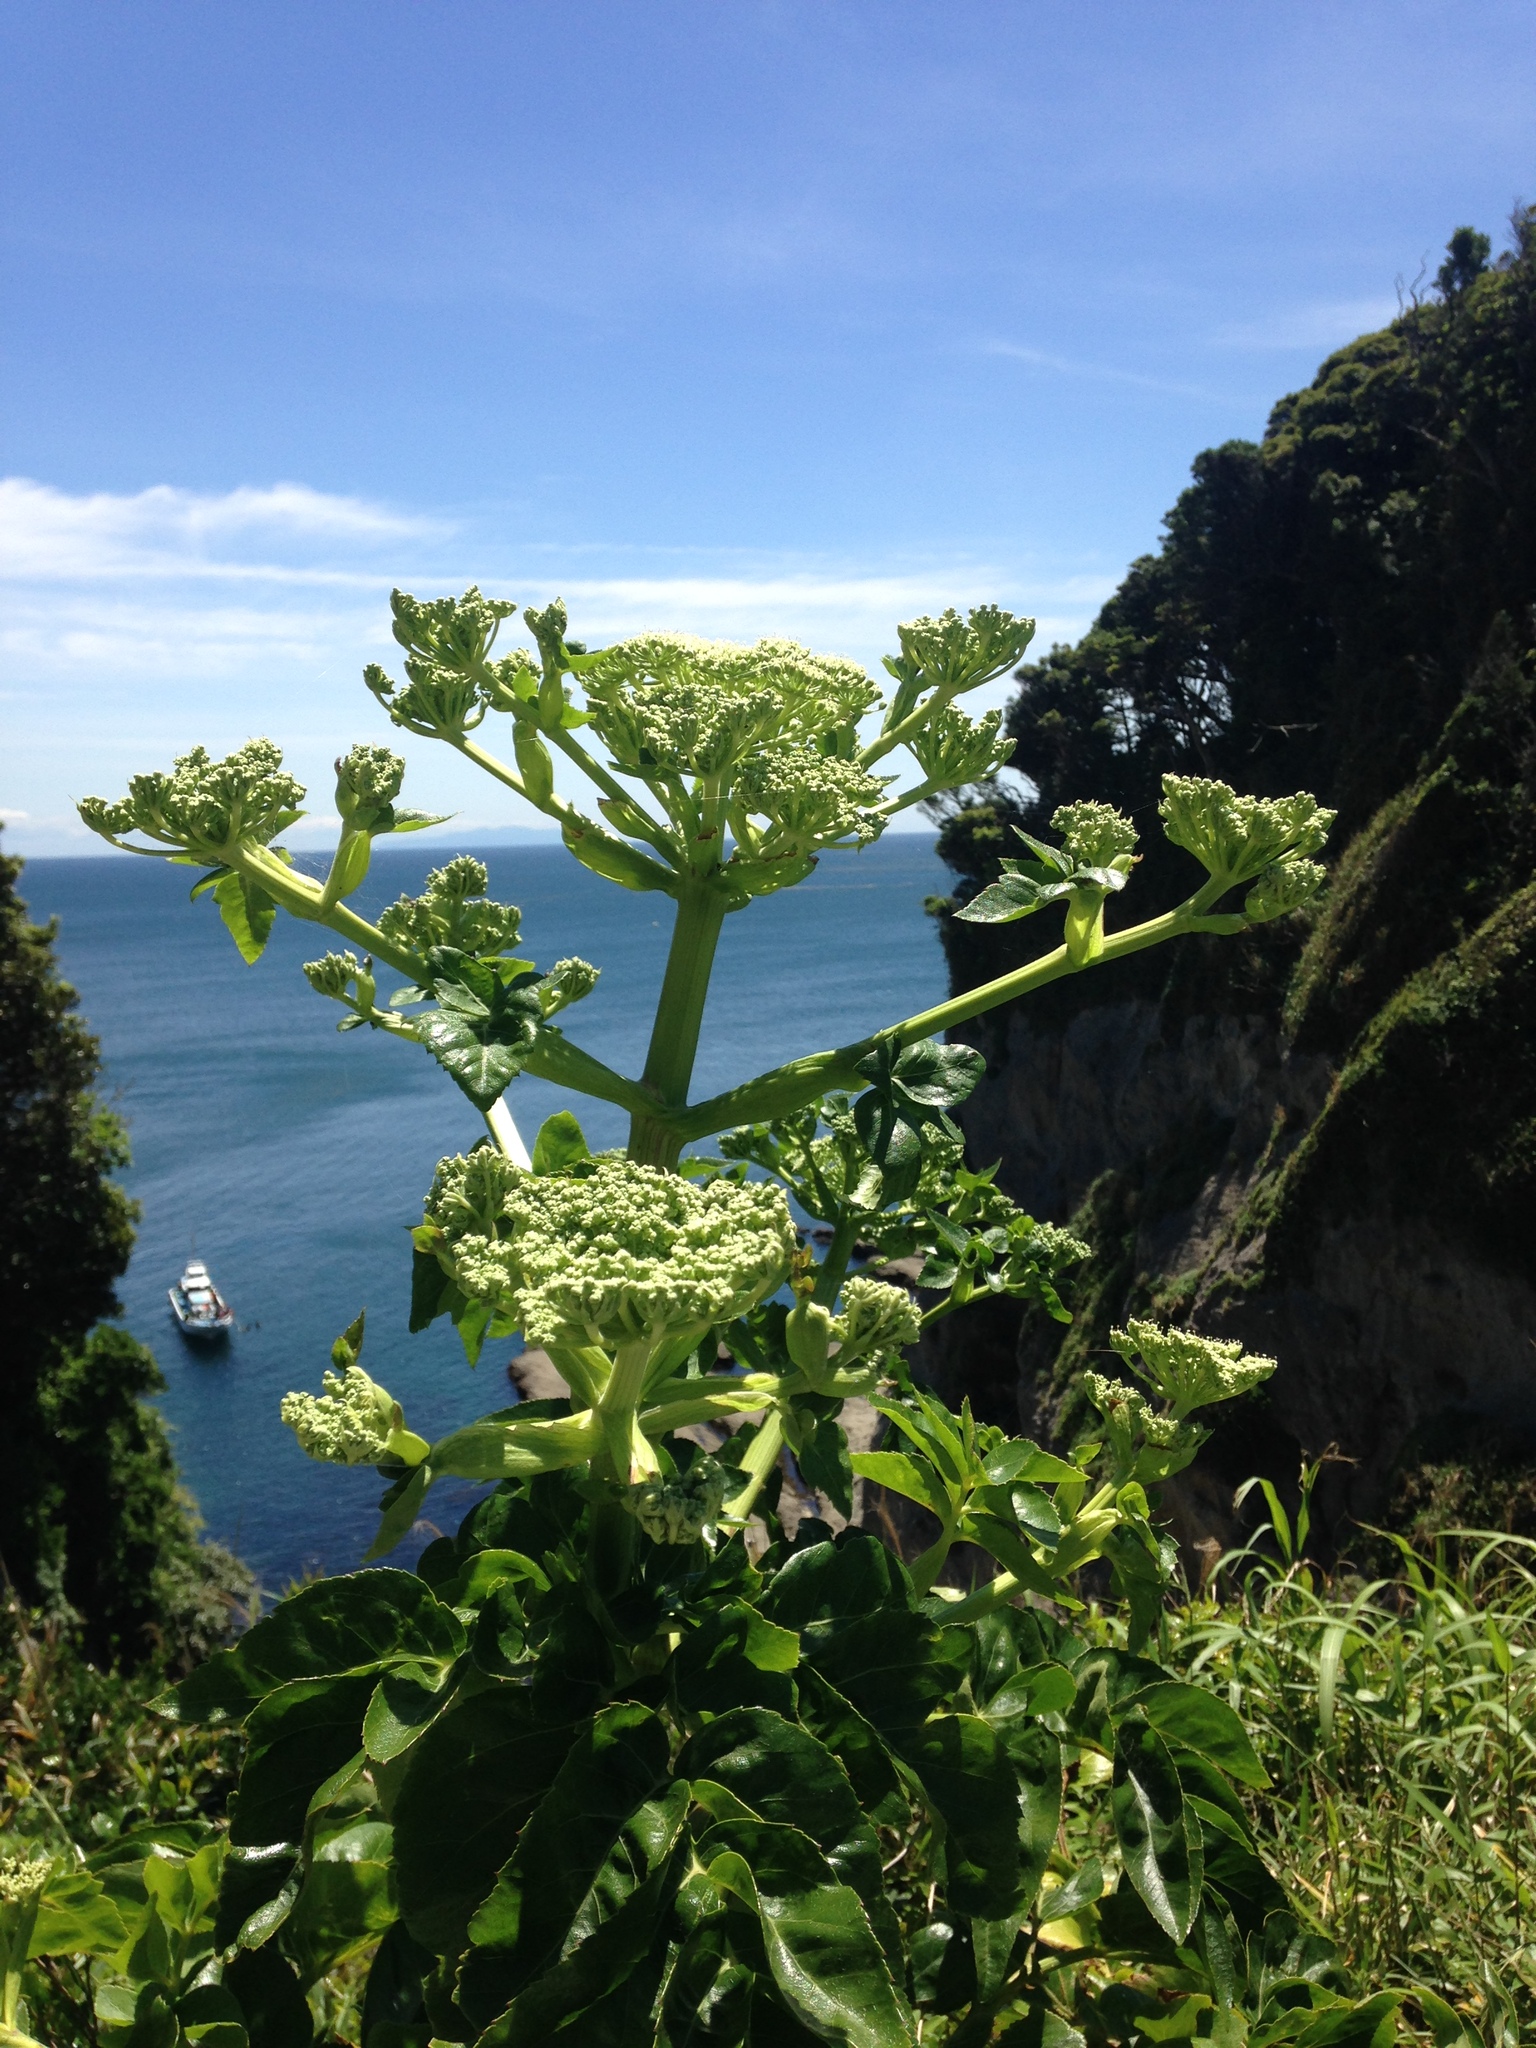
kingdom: Plantae
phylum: Tracheophyta
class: Magnoliopsida
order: Apiales
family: Apiaceae
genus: Angelica
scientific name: Angelica japonica
